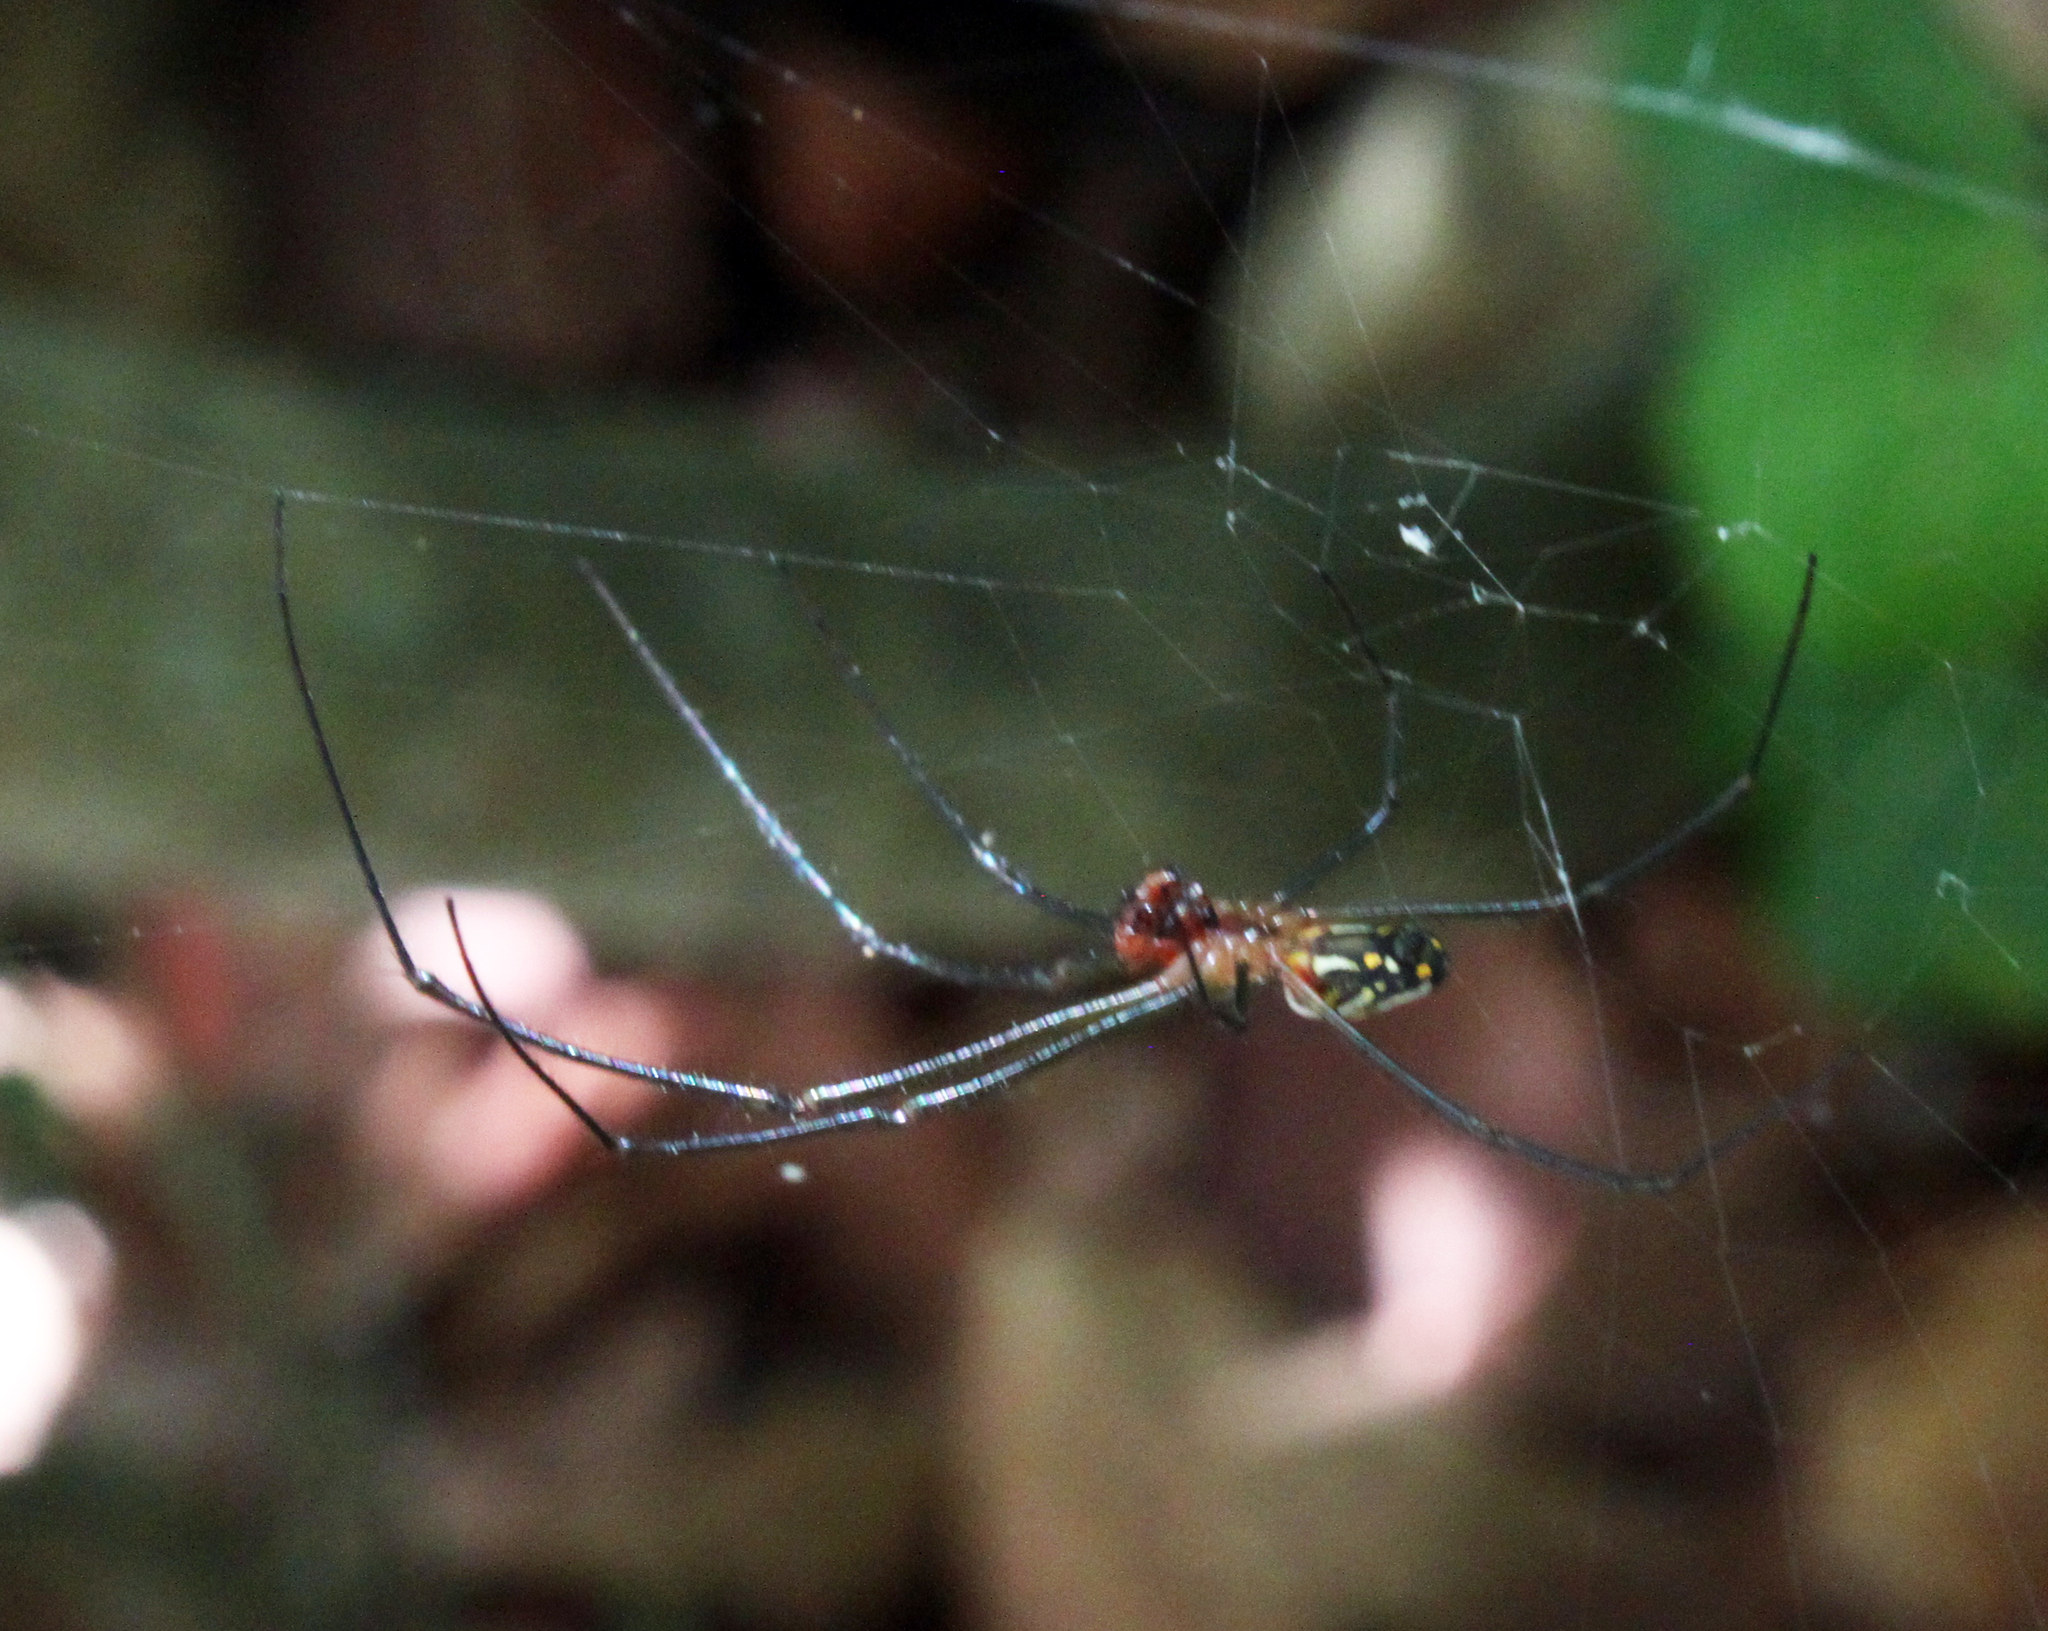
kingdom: Animalia
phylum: Arthropoda
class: Arachnida
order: Araneae
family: Tetragnathidae
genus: Leucauge
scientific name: Leucauge argyra
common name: Longjawed orb weavers
